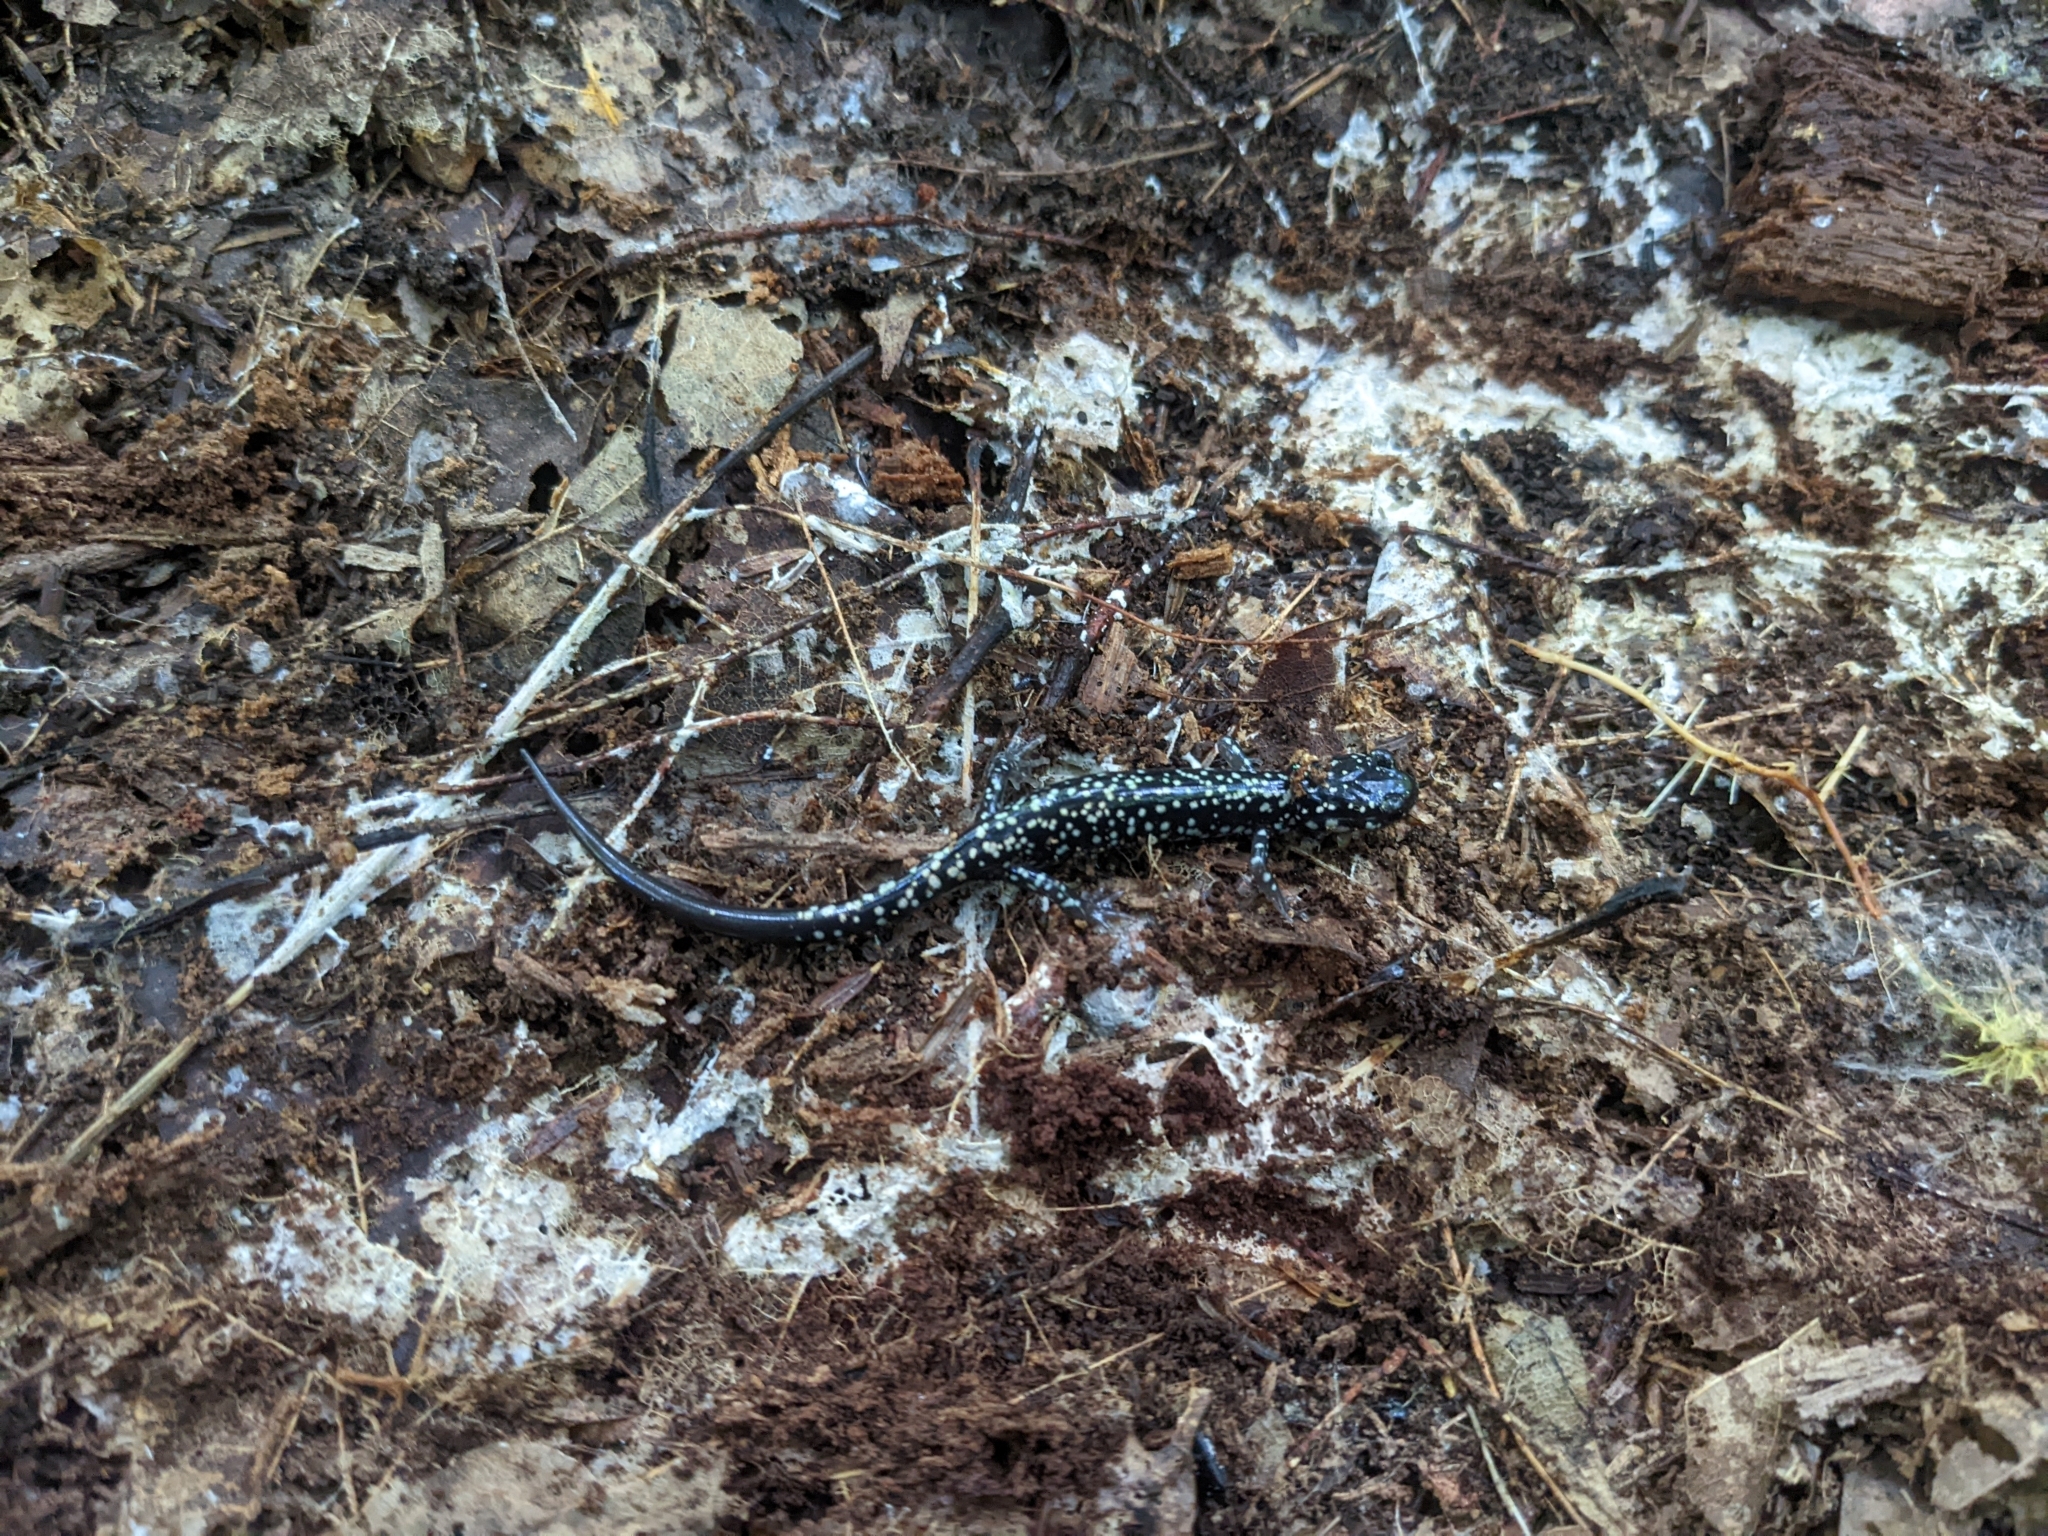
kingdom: Animalia
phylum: Chordata
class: Amphibia
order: Caudata
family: Plethodontidae
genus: Plethodon
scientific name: Plethodon glutinosus
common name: Northern slimy salamander
